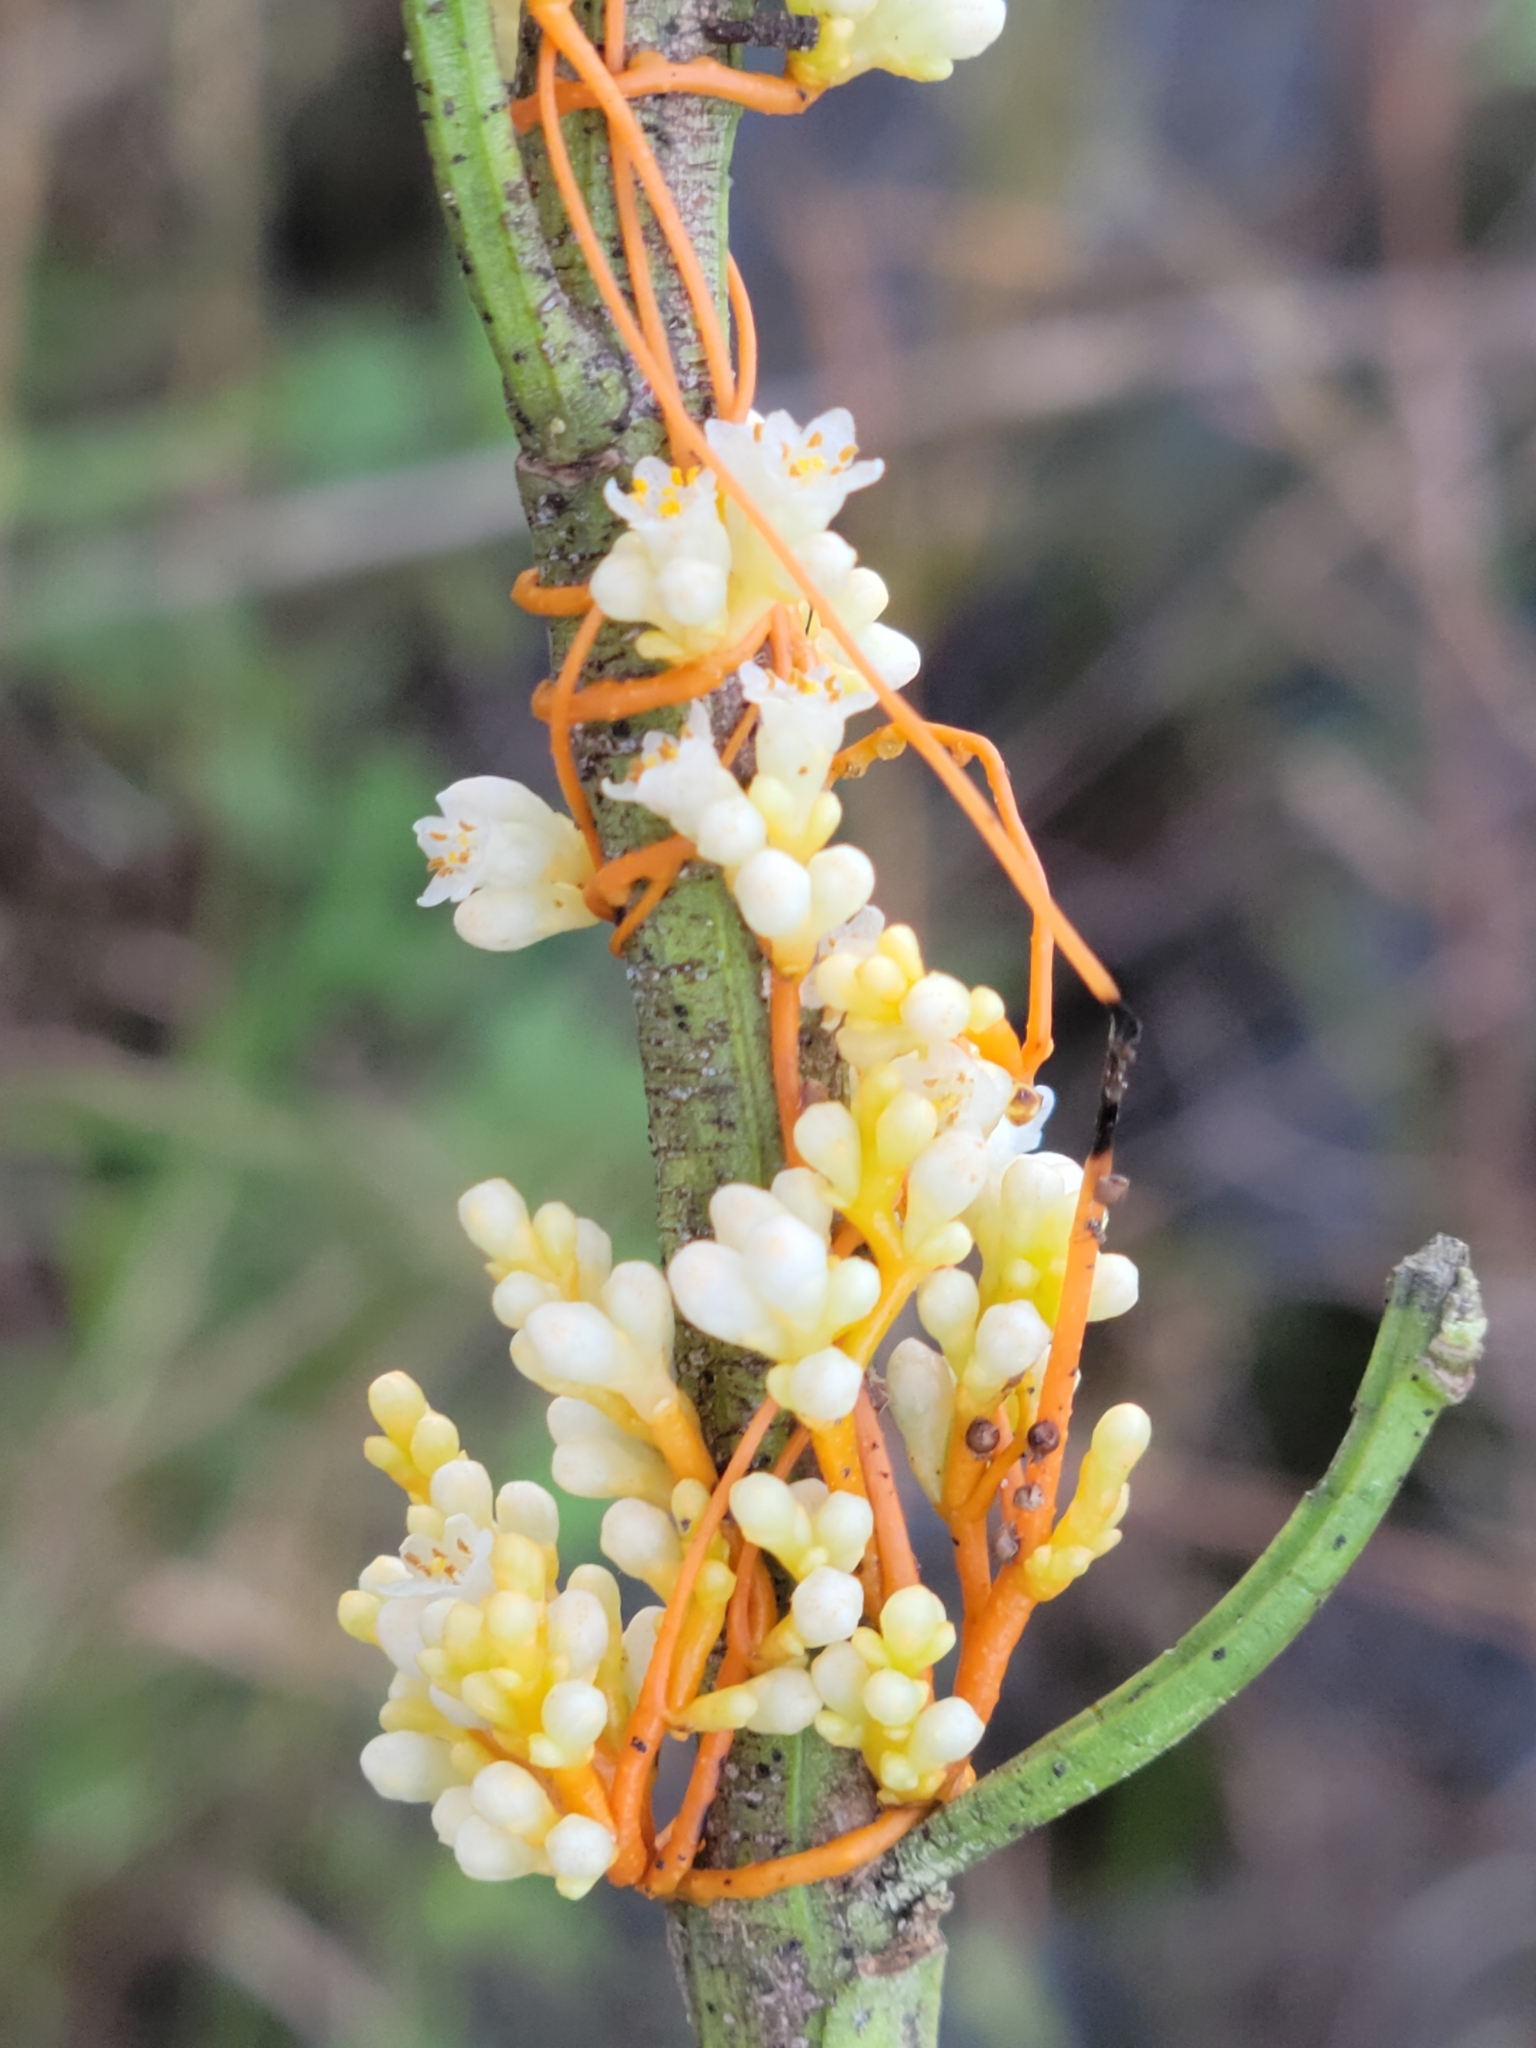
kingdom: Plantae
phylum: Tracheophyta
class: Magnoliopsida
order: Solanales
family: Convolvulaceae
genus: Cuscuta
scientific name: Cuscuta obtusiflora
